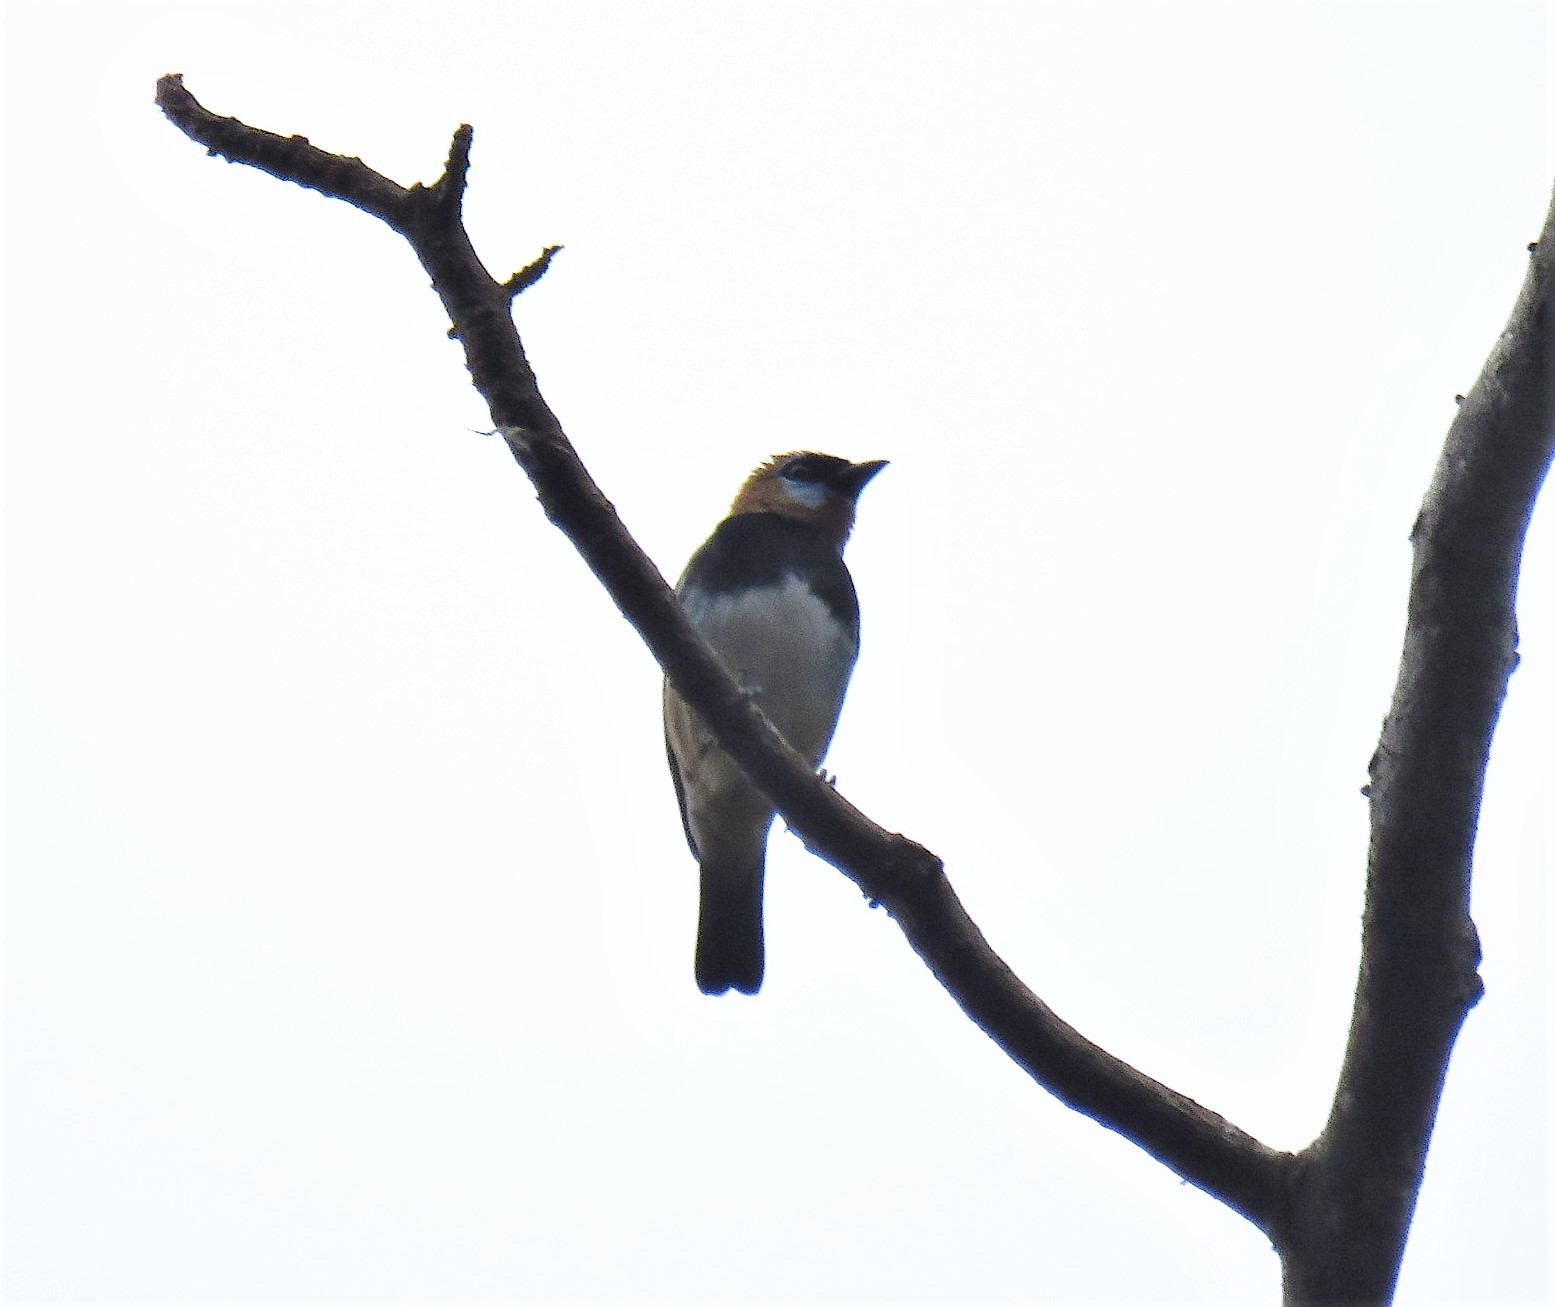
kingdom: Animalia
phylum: Chordata
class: Aves
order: Passeriformes
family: Thraupidae
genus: Stilpnia
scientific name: Stilpnia larvata
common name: Golden-hooded tanager
